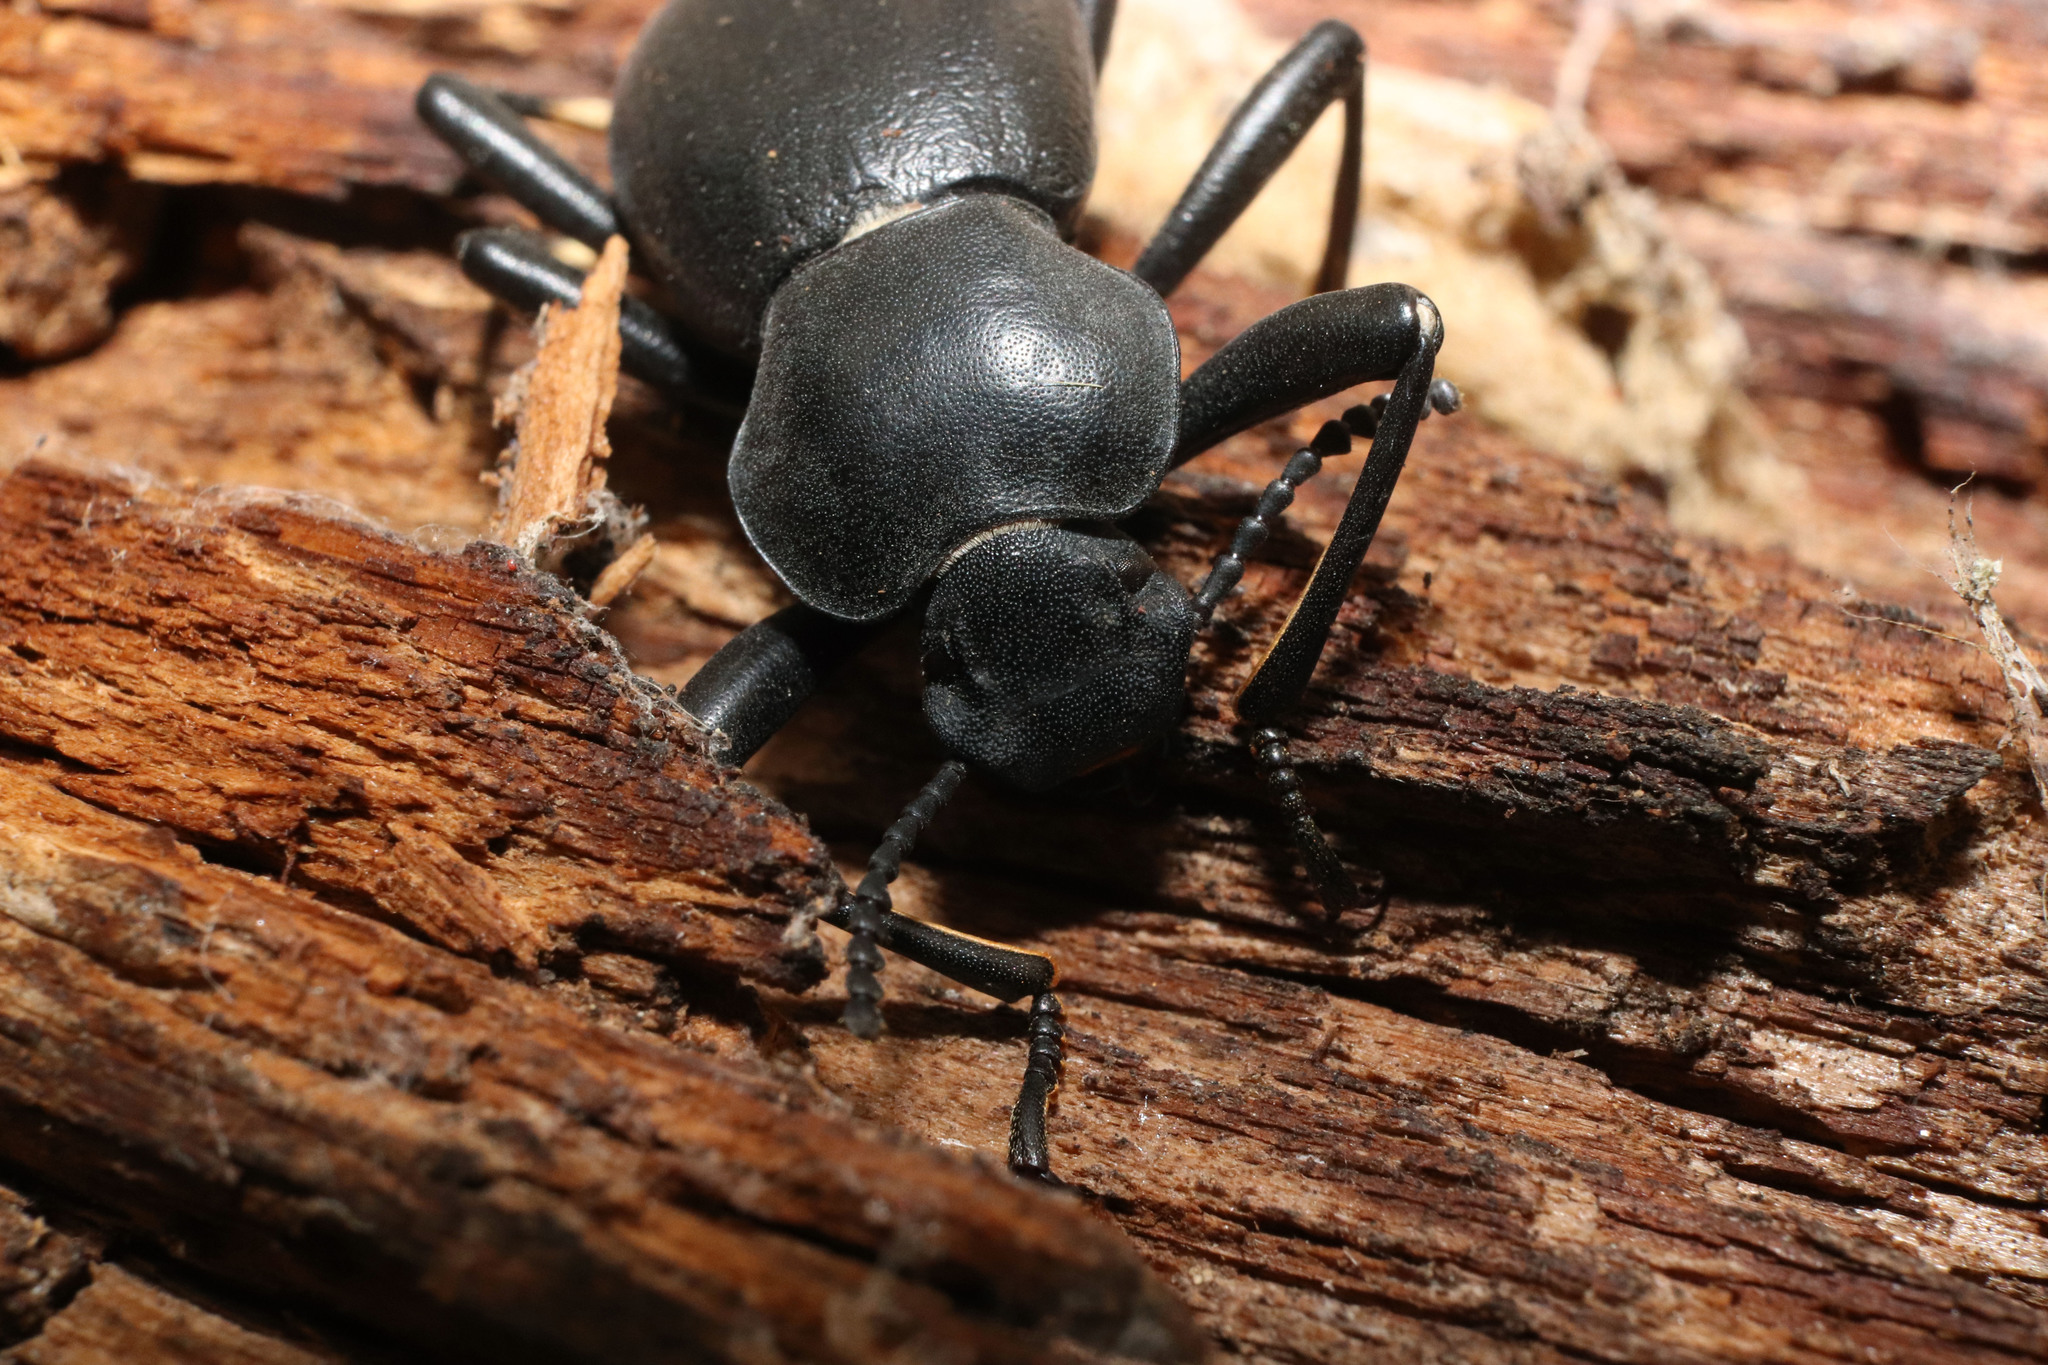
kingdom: Animalia
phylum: Arthropoda
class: Insecta
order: Coleoptera
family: Tenebrionidae
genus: Coelocnemis
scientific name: Coelocnemis dilaticollis
